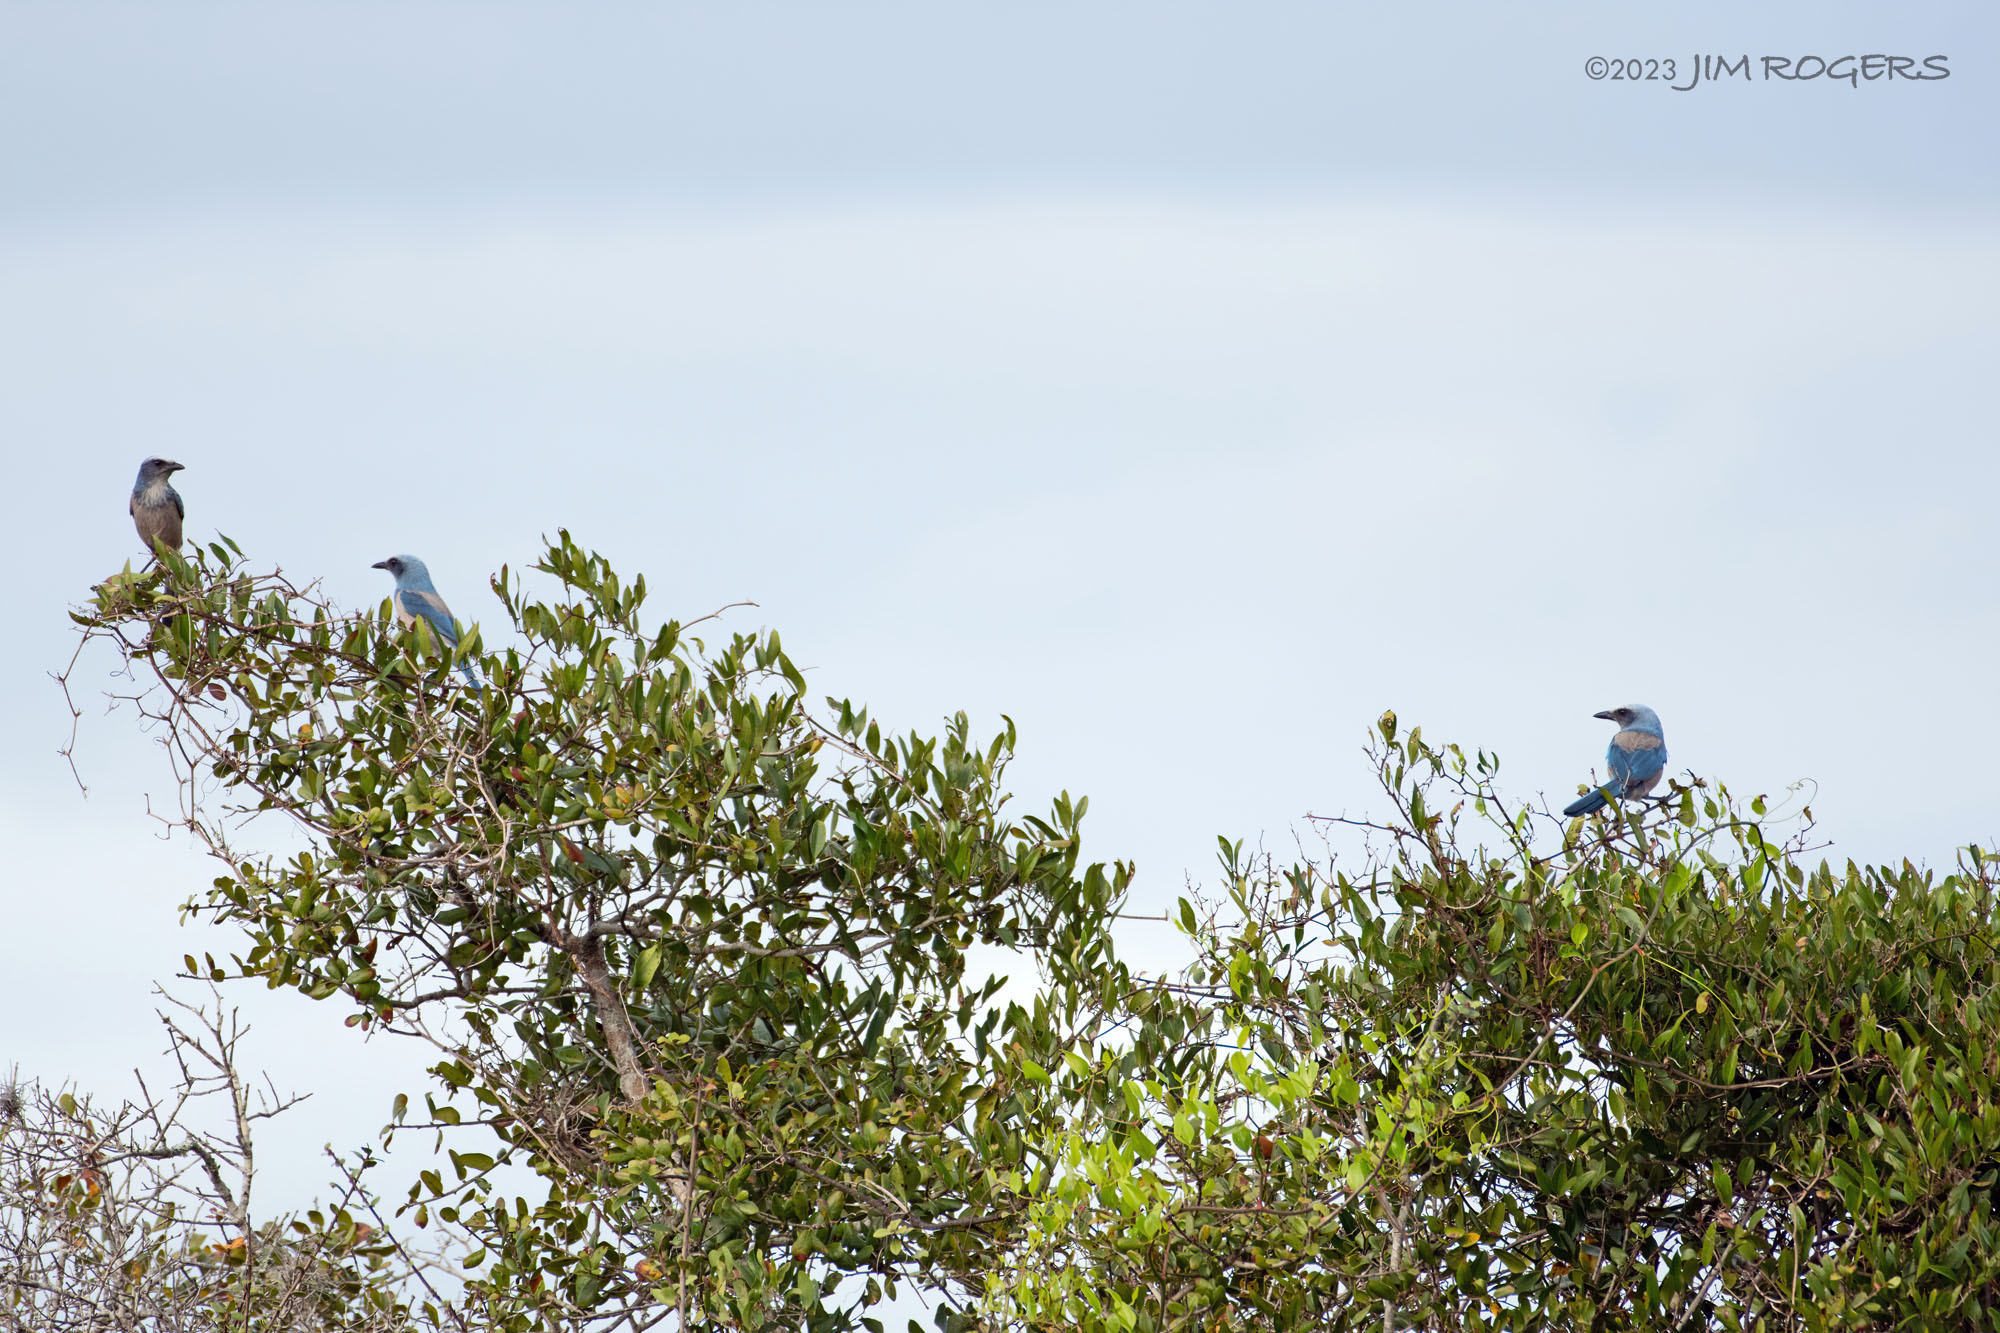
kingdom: Animalia
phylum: Chordata
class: Aves
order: Passeriformes
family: Corvidae
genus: Aphelocoma
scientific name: Aphelocoma coerulescens
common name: Florida scrub jay
